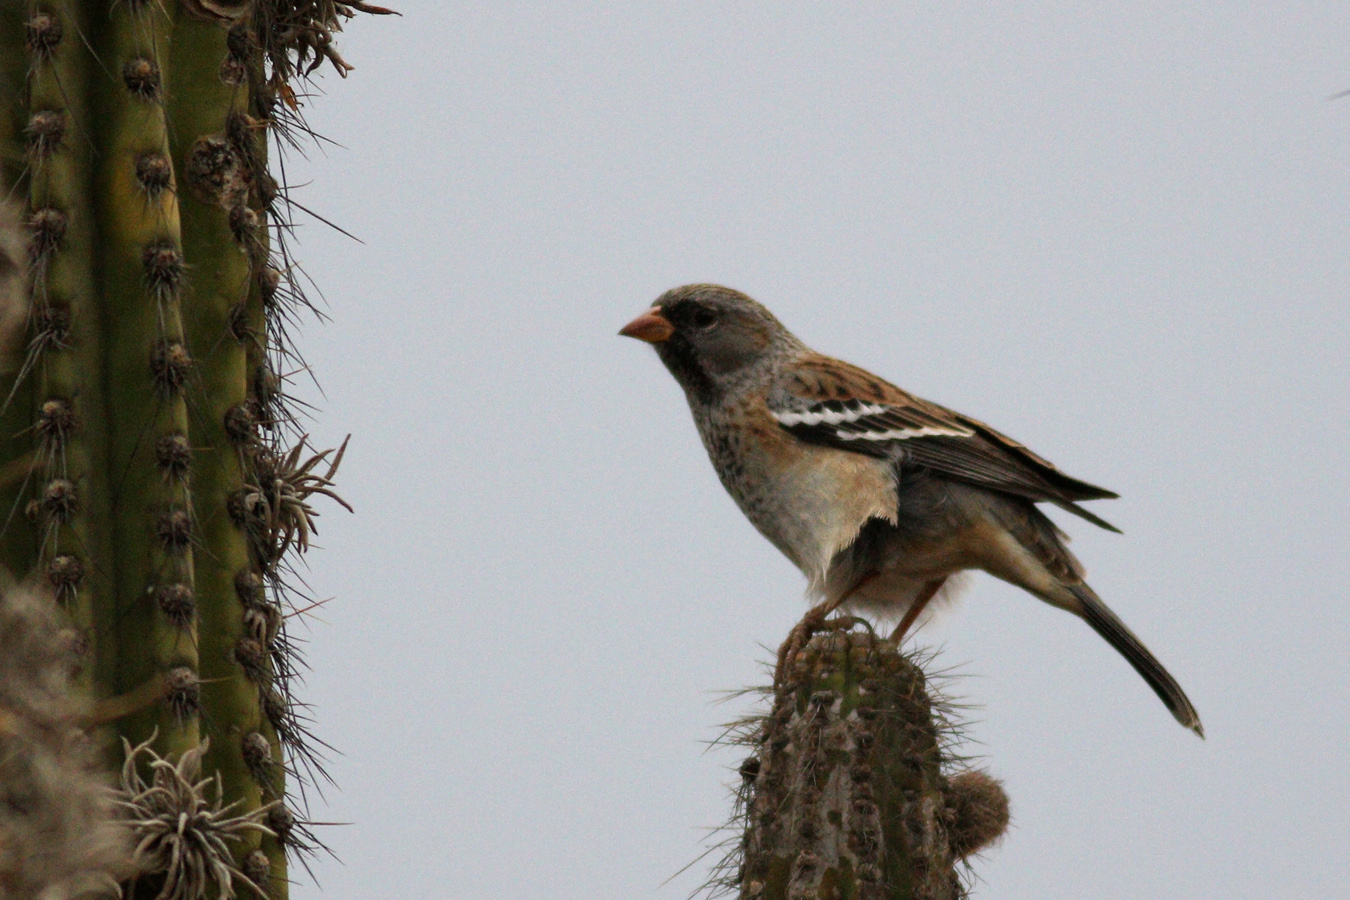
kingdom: Animalia
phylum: Chordata
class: Aves
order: Passeriformes
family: Thraupidae
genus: Rhopospina
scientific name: Rhopospina fruticeti
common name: Mourning sierra finch
